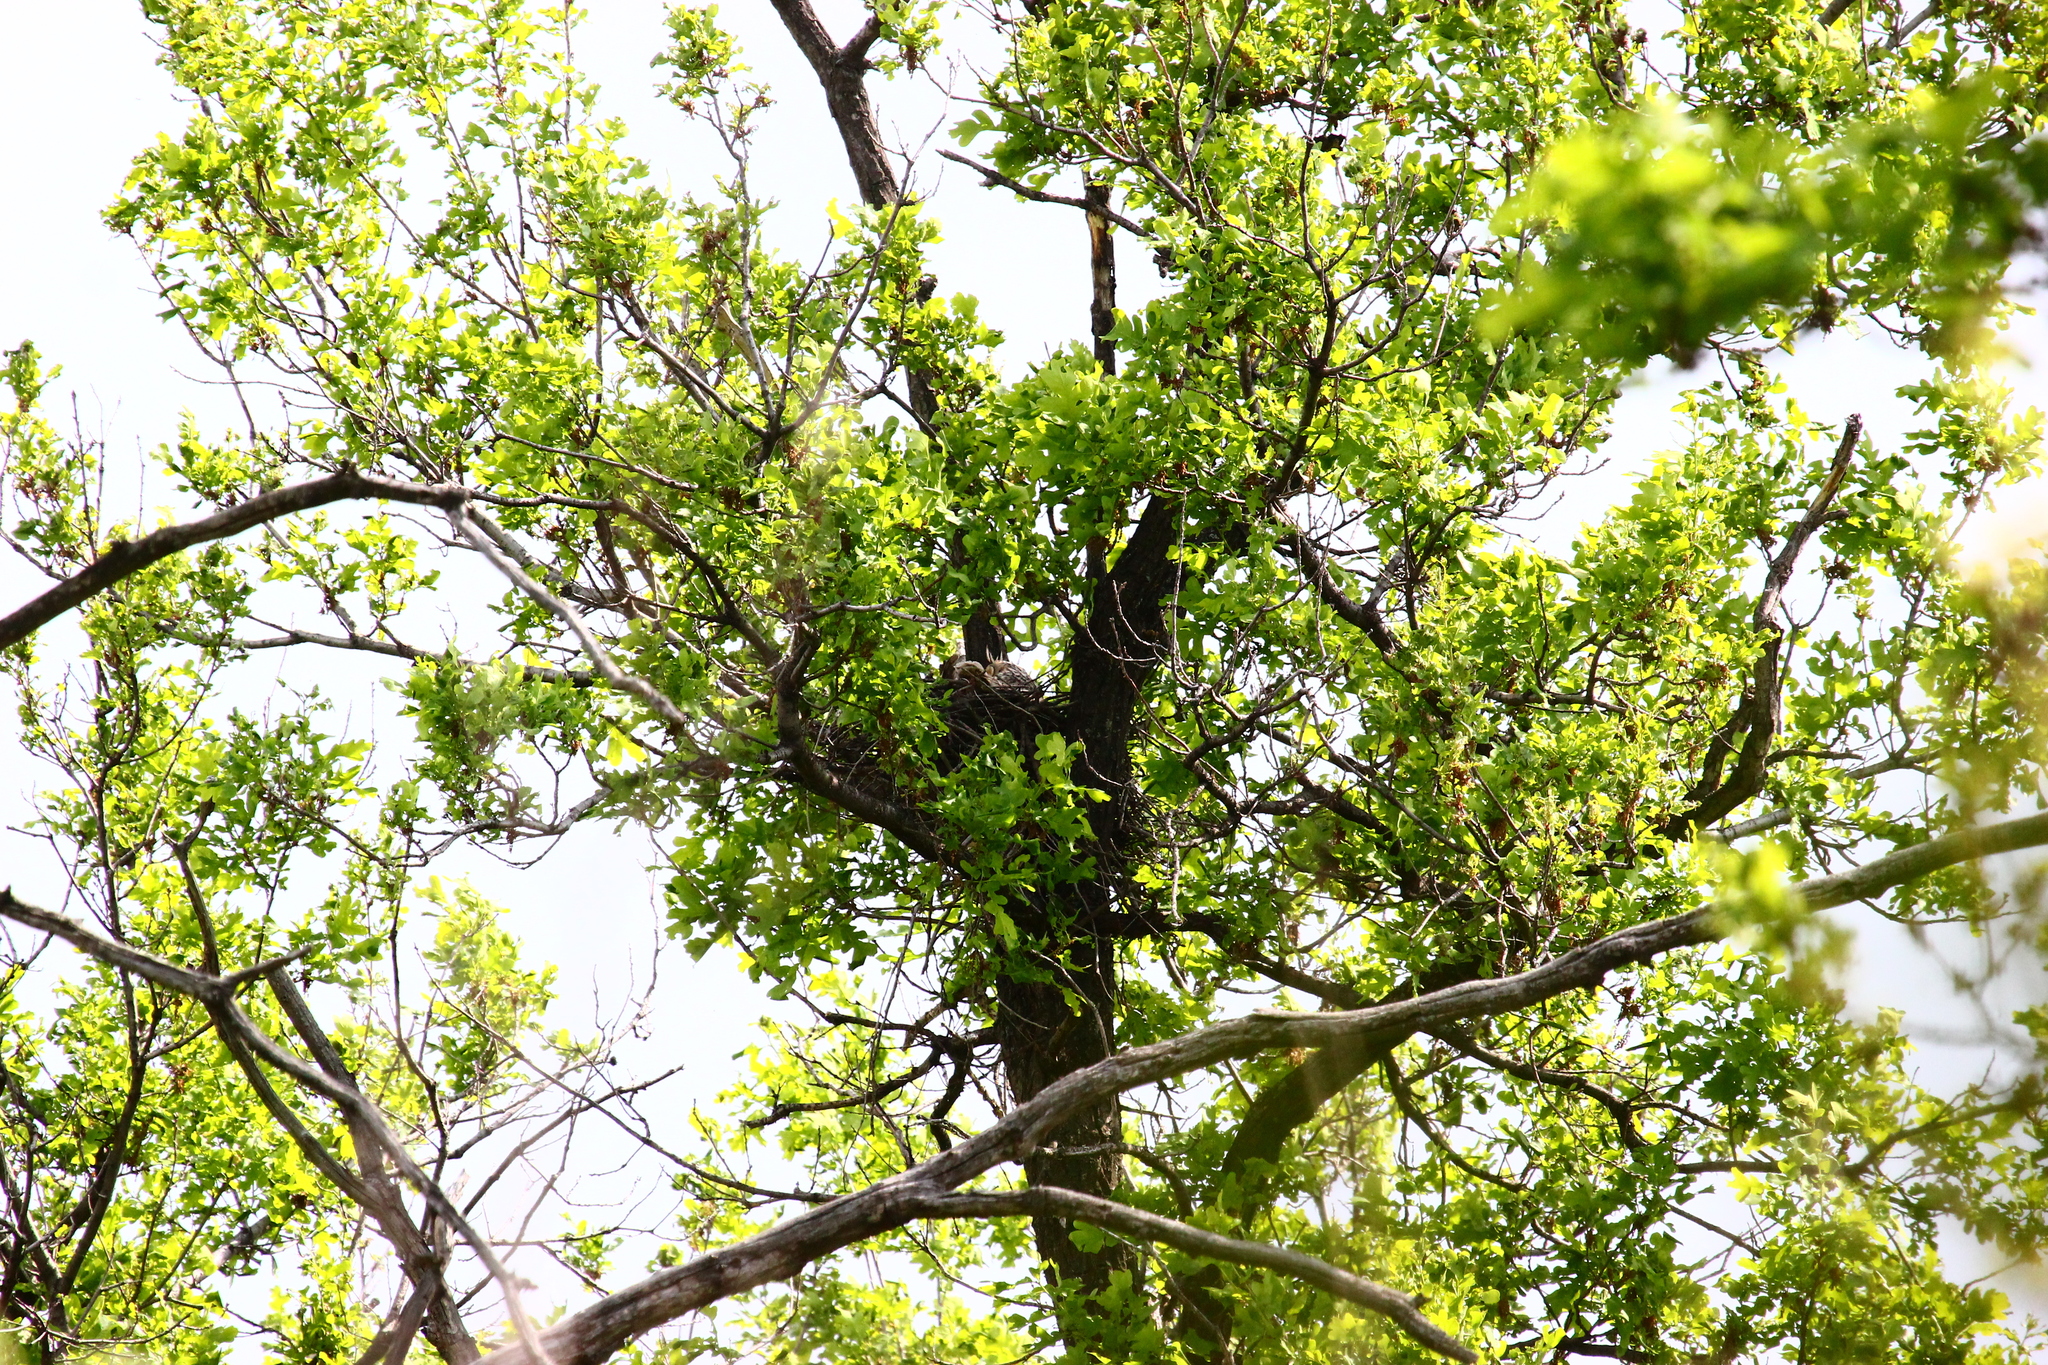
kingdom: Animalia
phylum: Chordata
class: Aves
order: Strigiformes
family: Strigidae
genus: Asio
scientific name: Asio otus
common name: Long-eared owl
